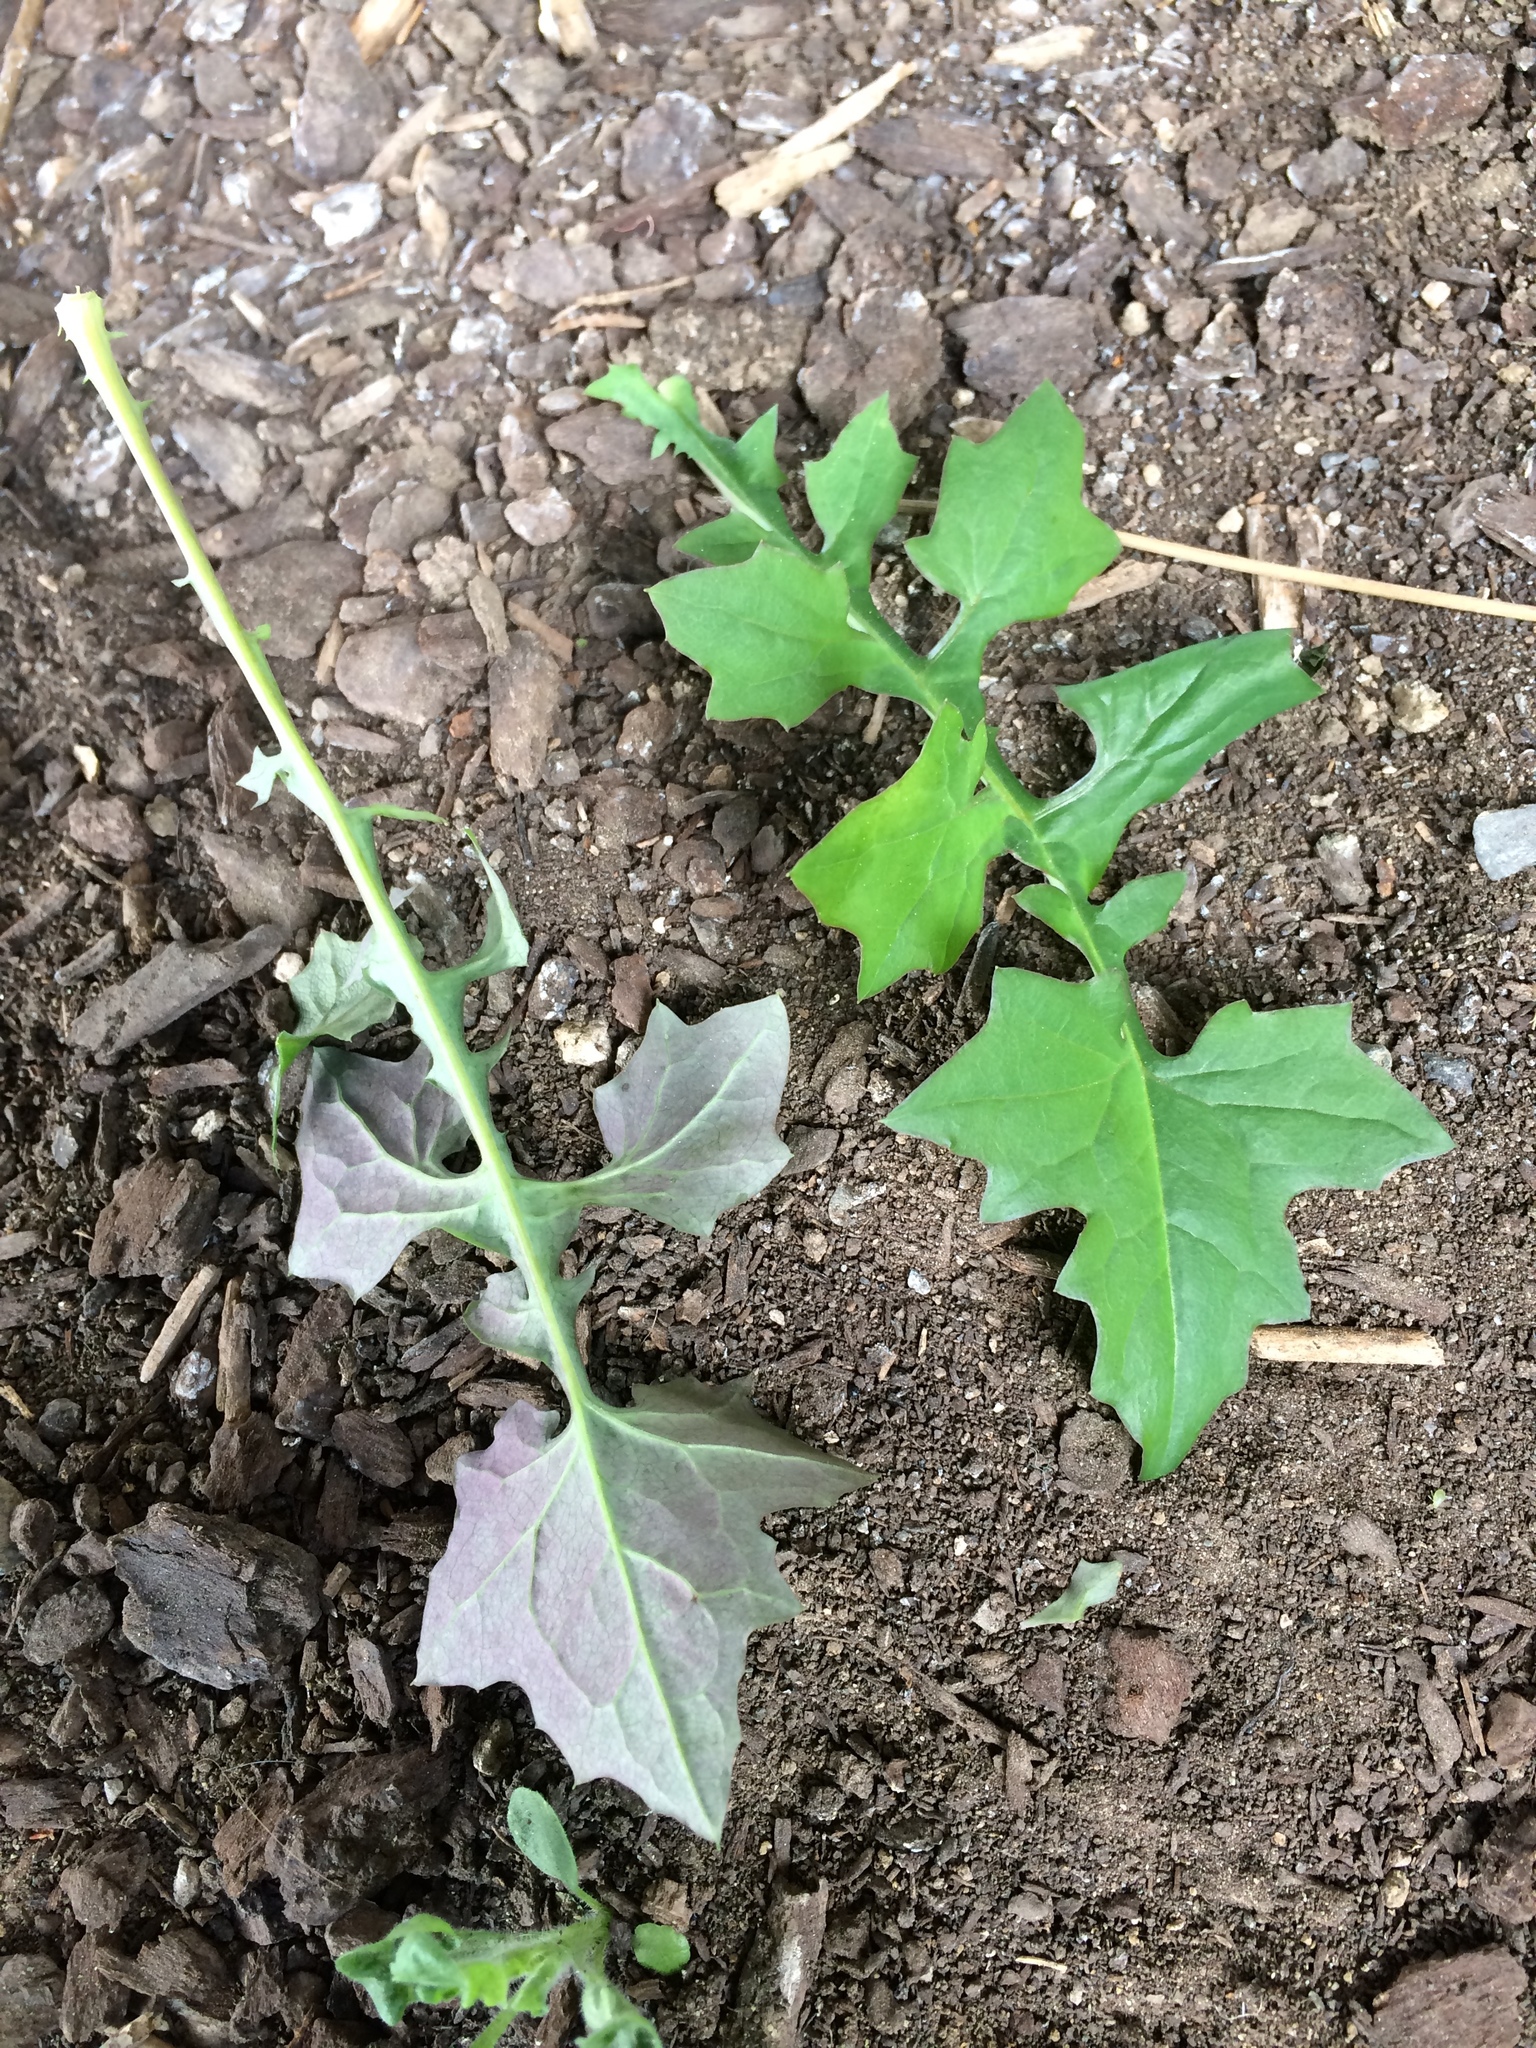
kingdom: Plantae
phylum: Tracheophyta
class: Magnoliopsida
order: Asterales
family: Asteraceae
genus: Mycelis
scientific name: Mycelis muralis
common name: Wall lettuce
